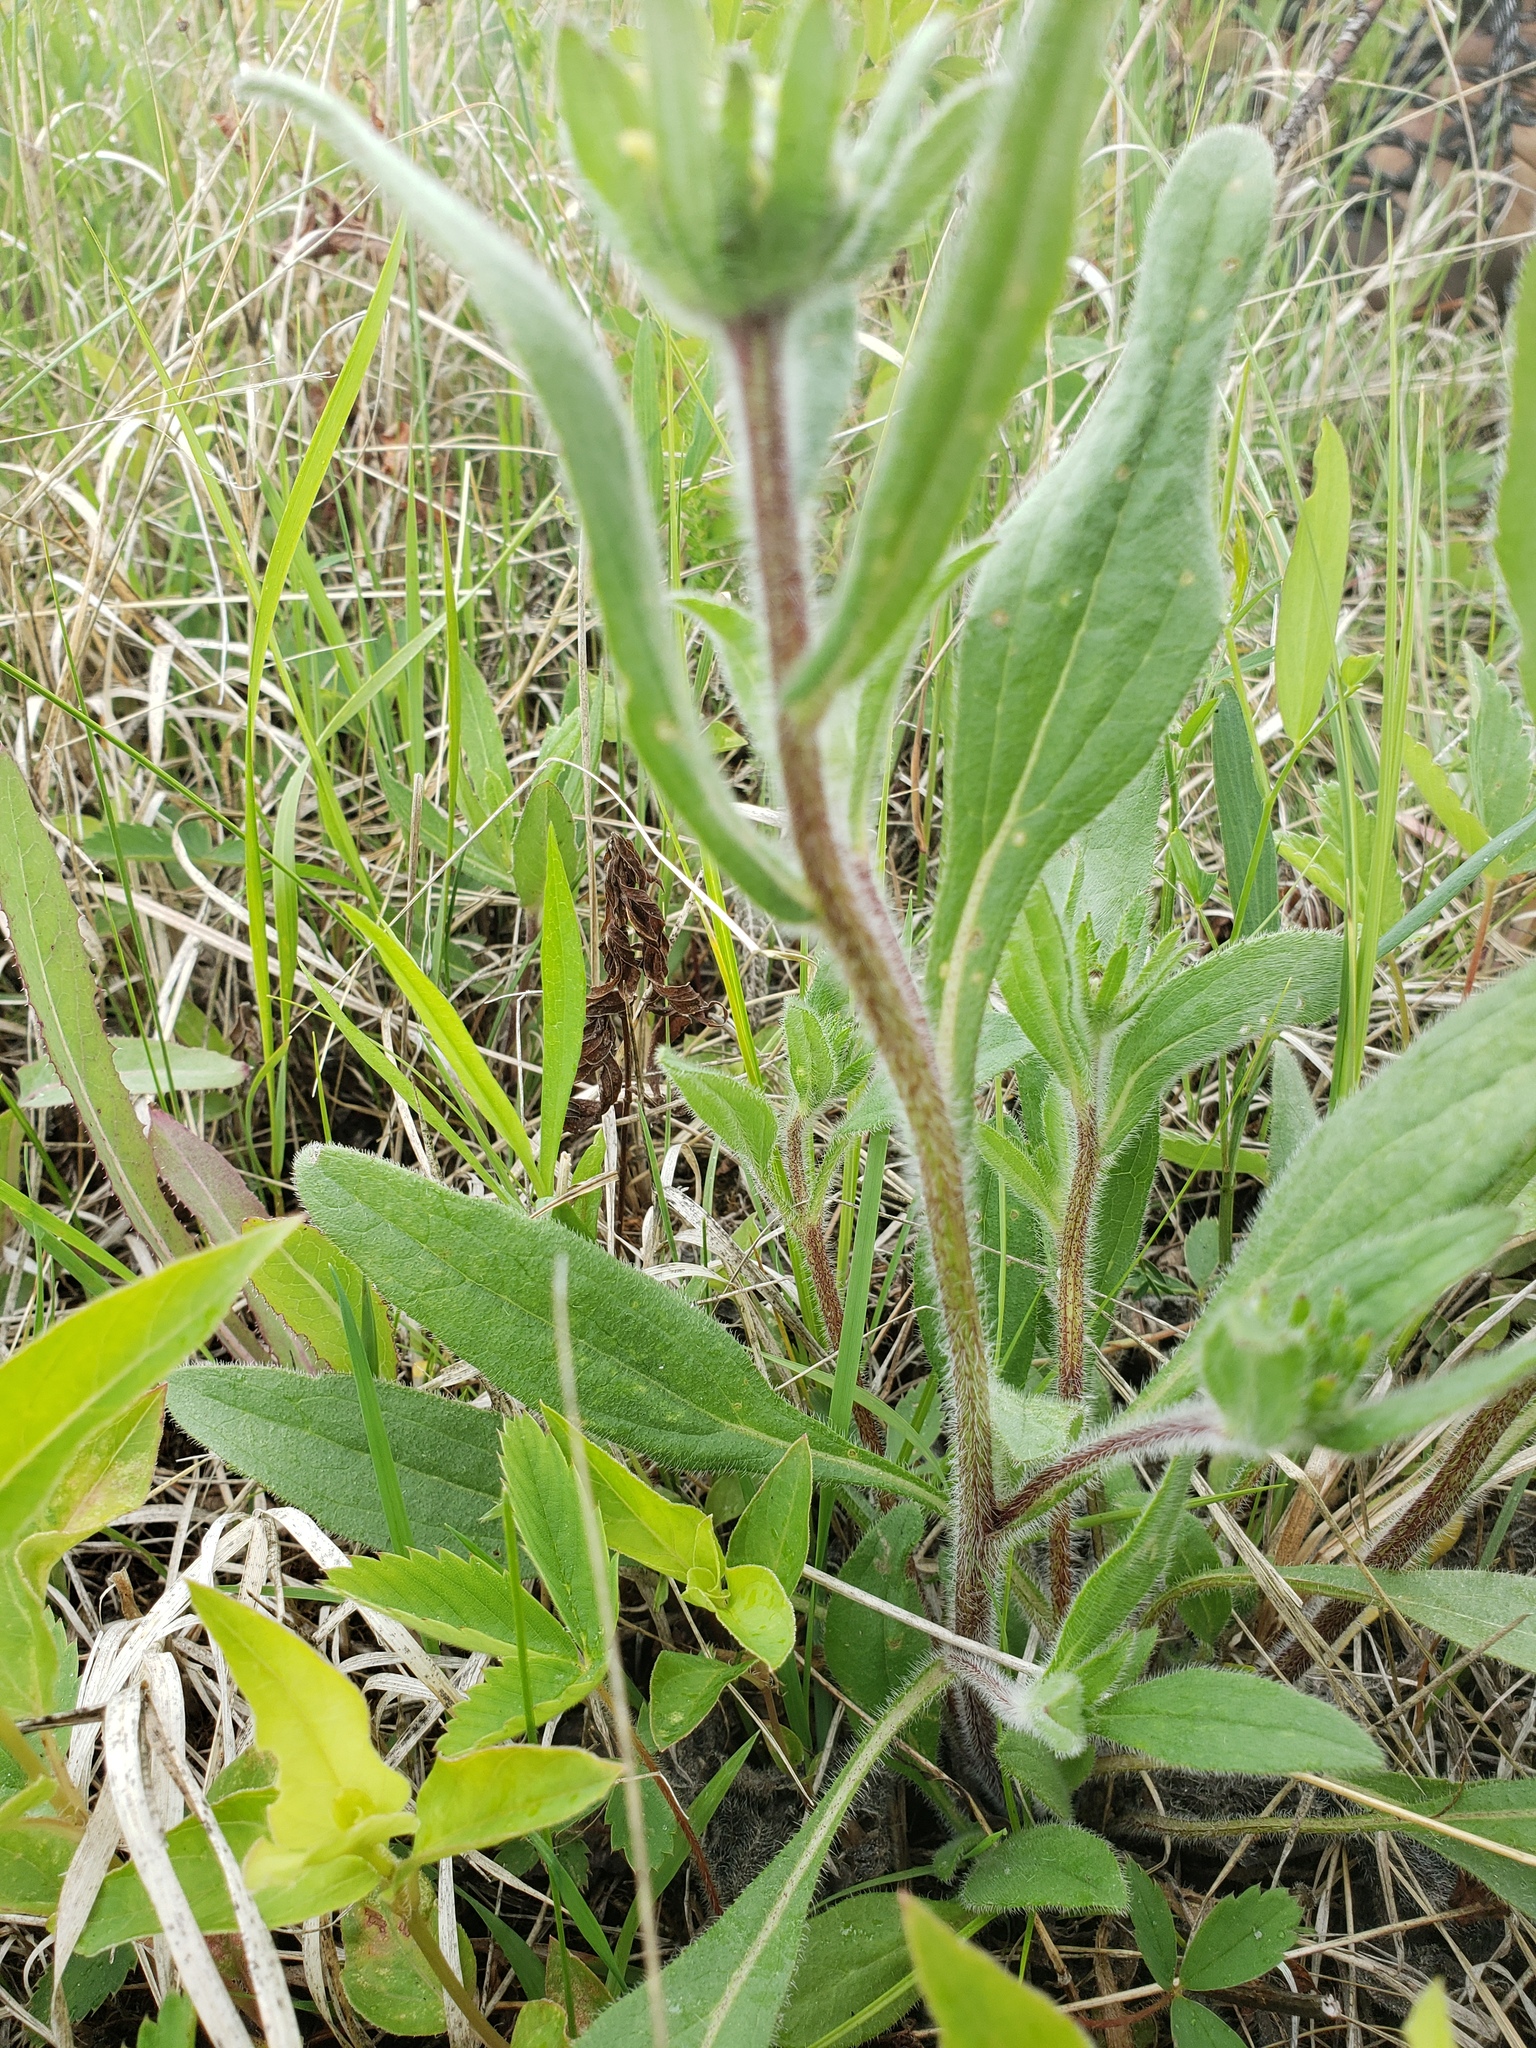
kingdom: Plantae
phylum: Tracheophyta
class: Magnoliopsida
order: Asterales
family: Asteraceae
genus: Rudbeckia
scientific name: Rudbeckia hirta
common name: Black-eyed-susan
